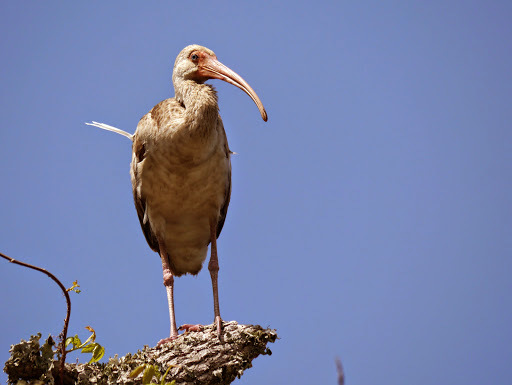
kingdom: Animalia
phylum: Chordata
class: Aves
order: Pelecaniformes
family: Threskiornithidae
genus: Eudocimus
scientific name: Eudocimus albus
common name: White ibis
